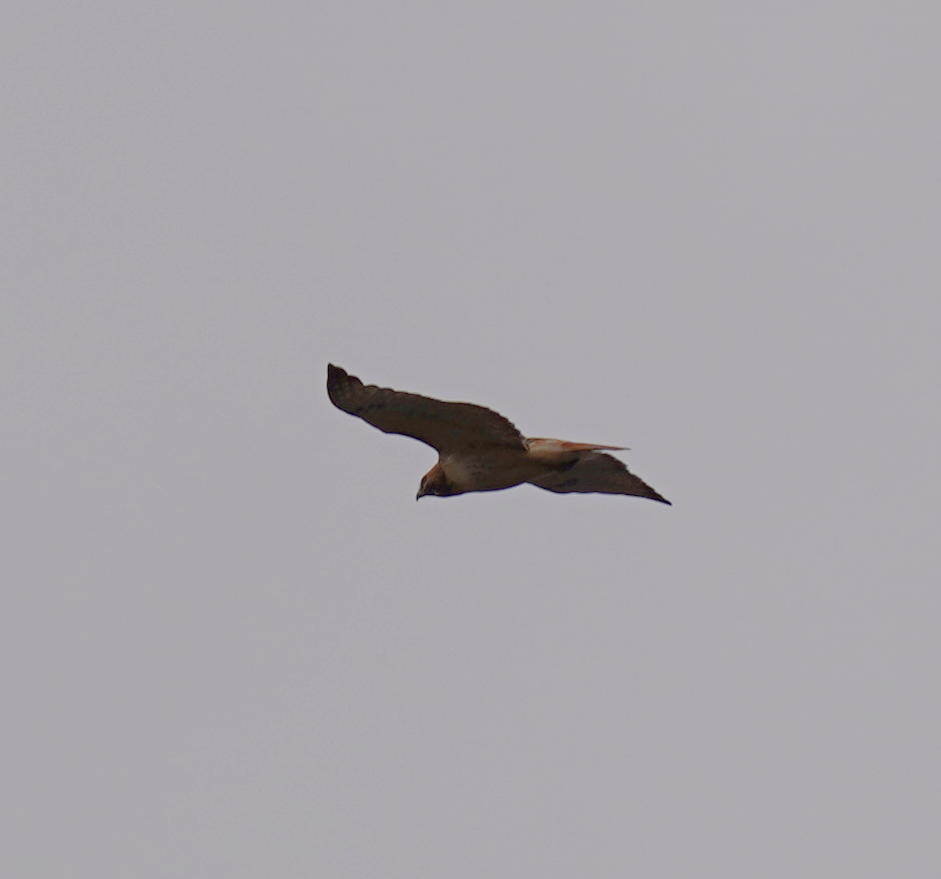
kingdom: Animalia
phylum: Chordata
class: Aves
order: Accipitriformes
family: Accipitridae
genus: Buteo
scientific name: Buteo jamaicensis
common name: Red-tailed hawk
